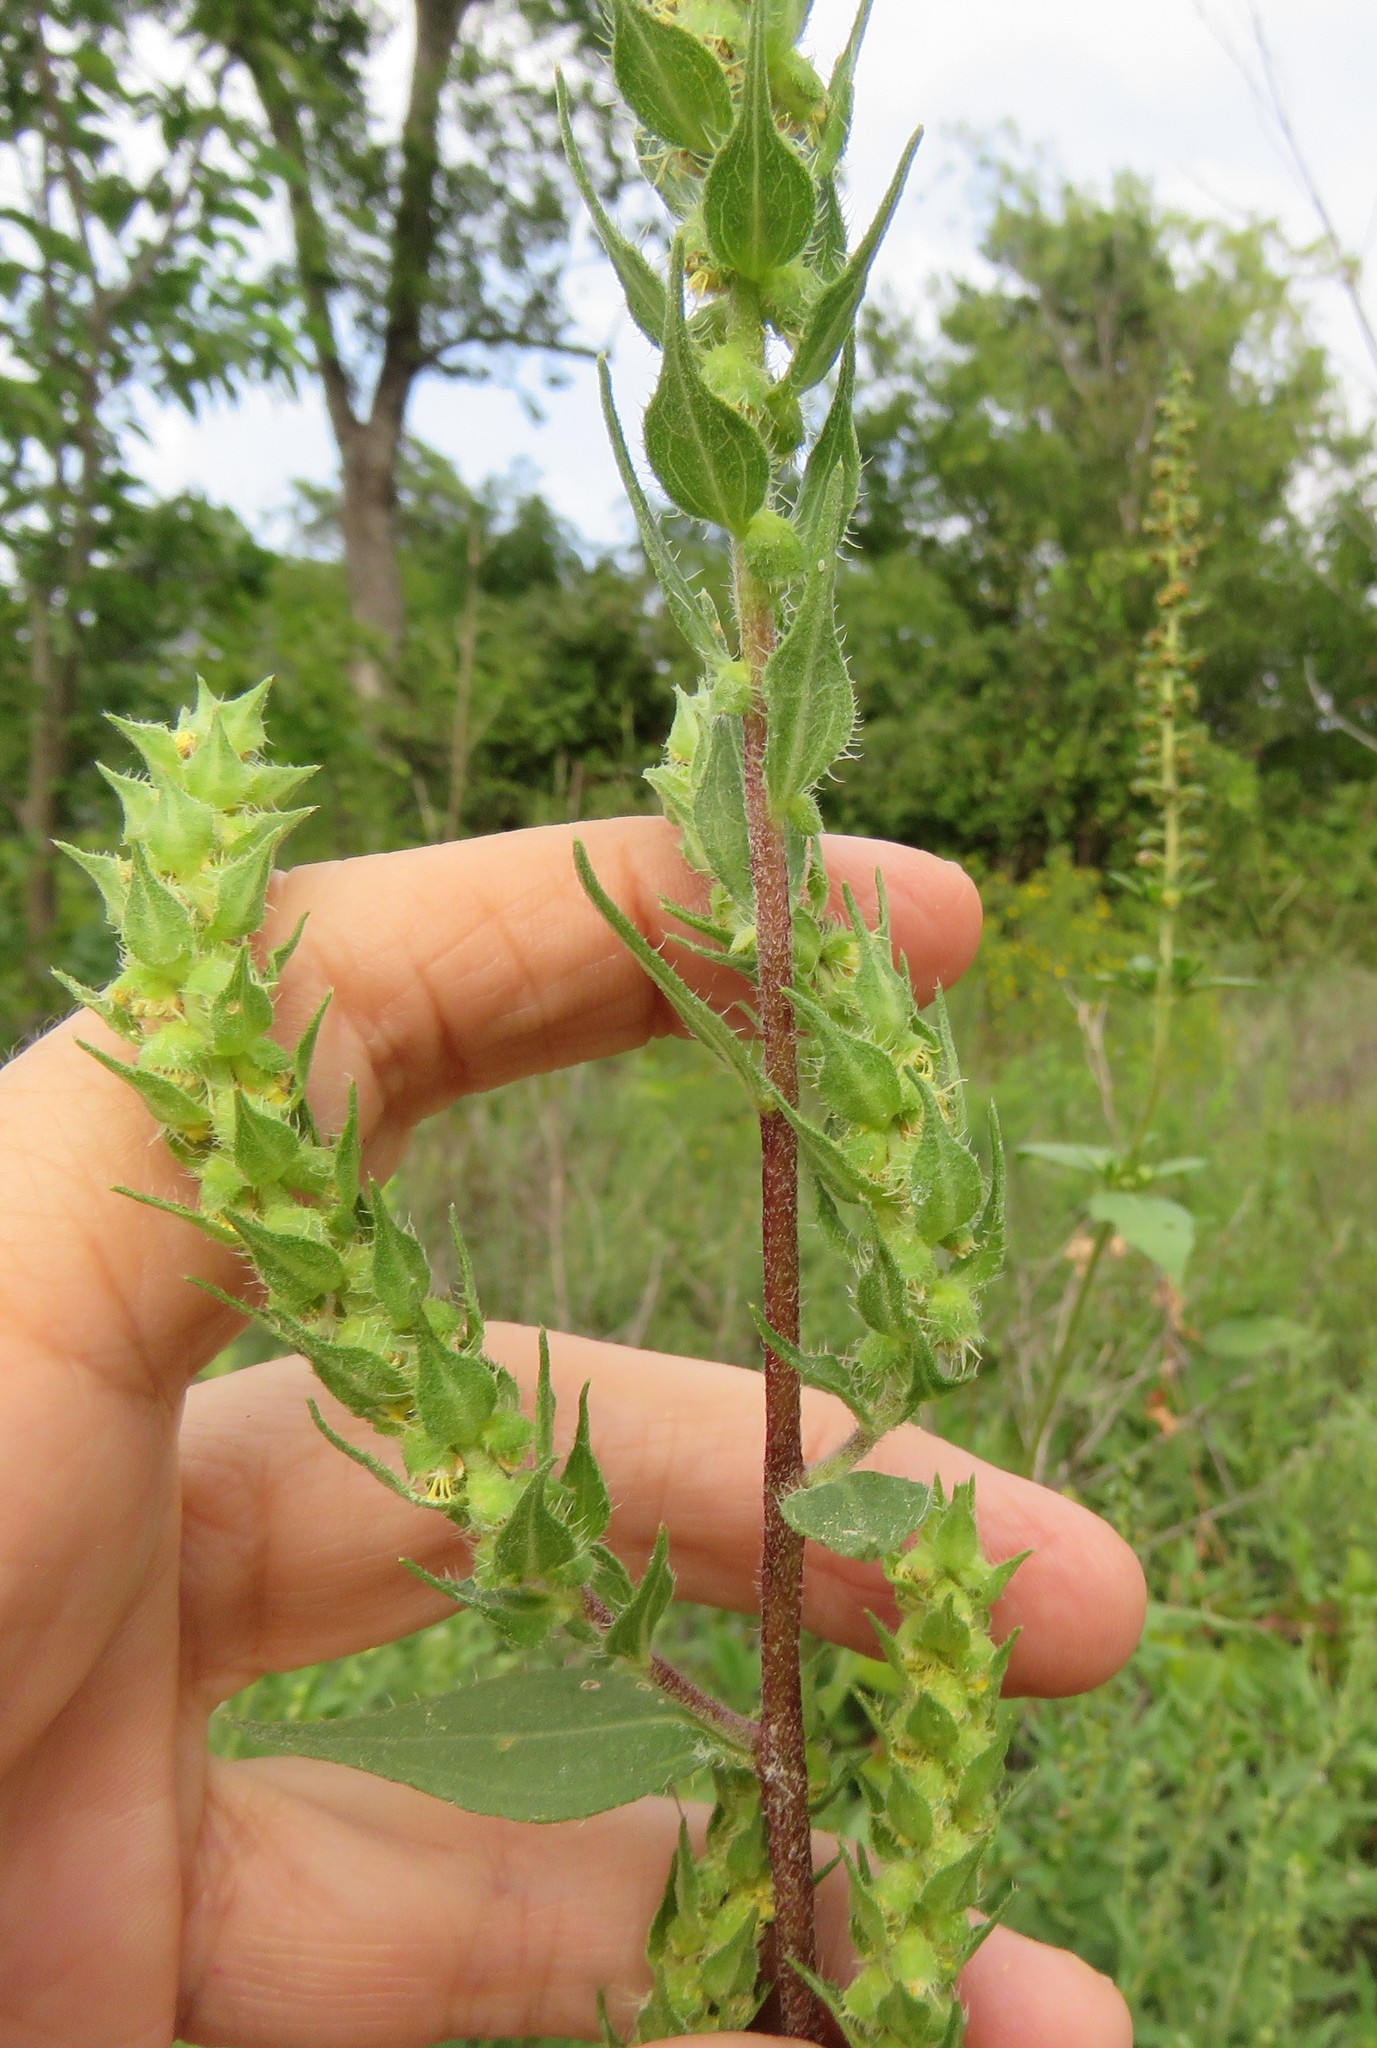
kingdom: Plantae
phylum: Tracheophyta
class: Magnoliopsida
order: Asterales
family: Asteraceae
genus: Iva
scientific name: Iva annua
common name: Marsh-elder
